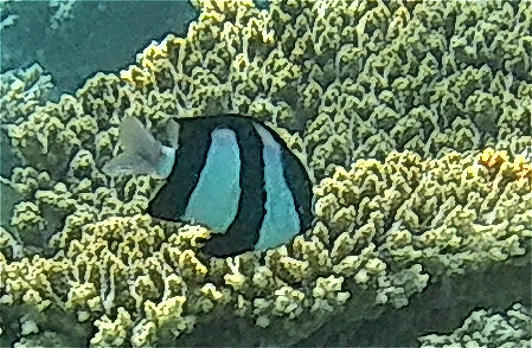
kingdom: Animalia
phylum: Chordata
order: Perciformes
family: Pomacentridae
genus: Dascyllus
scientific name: Dascyllus abudafur
